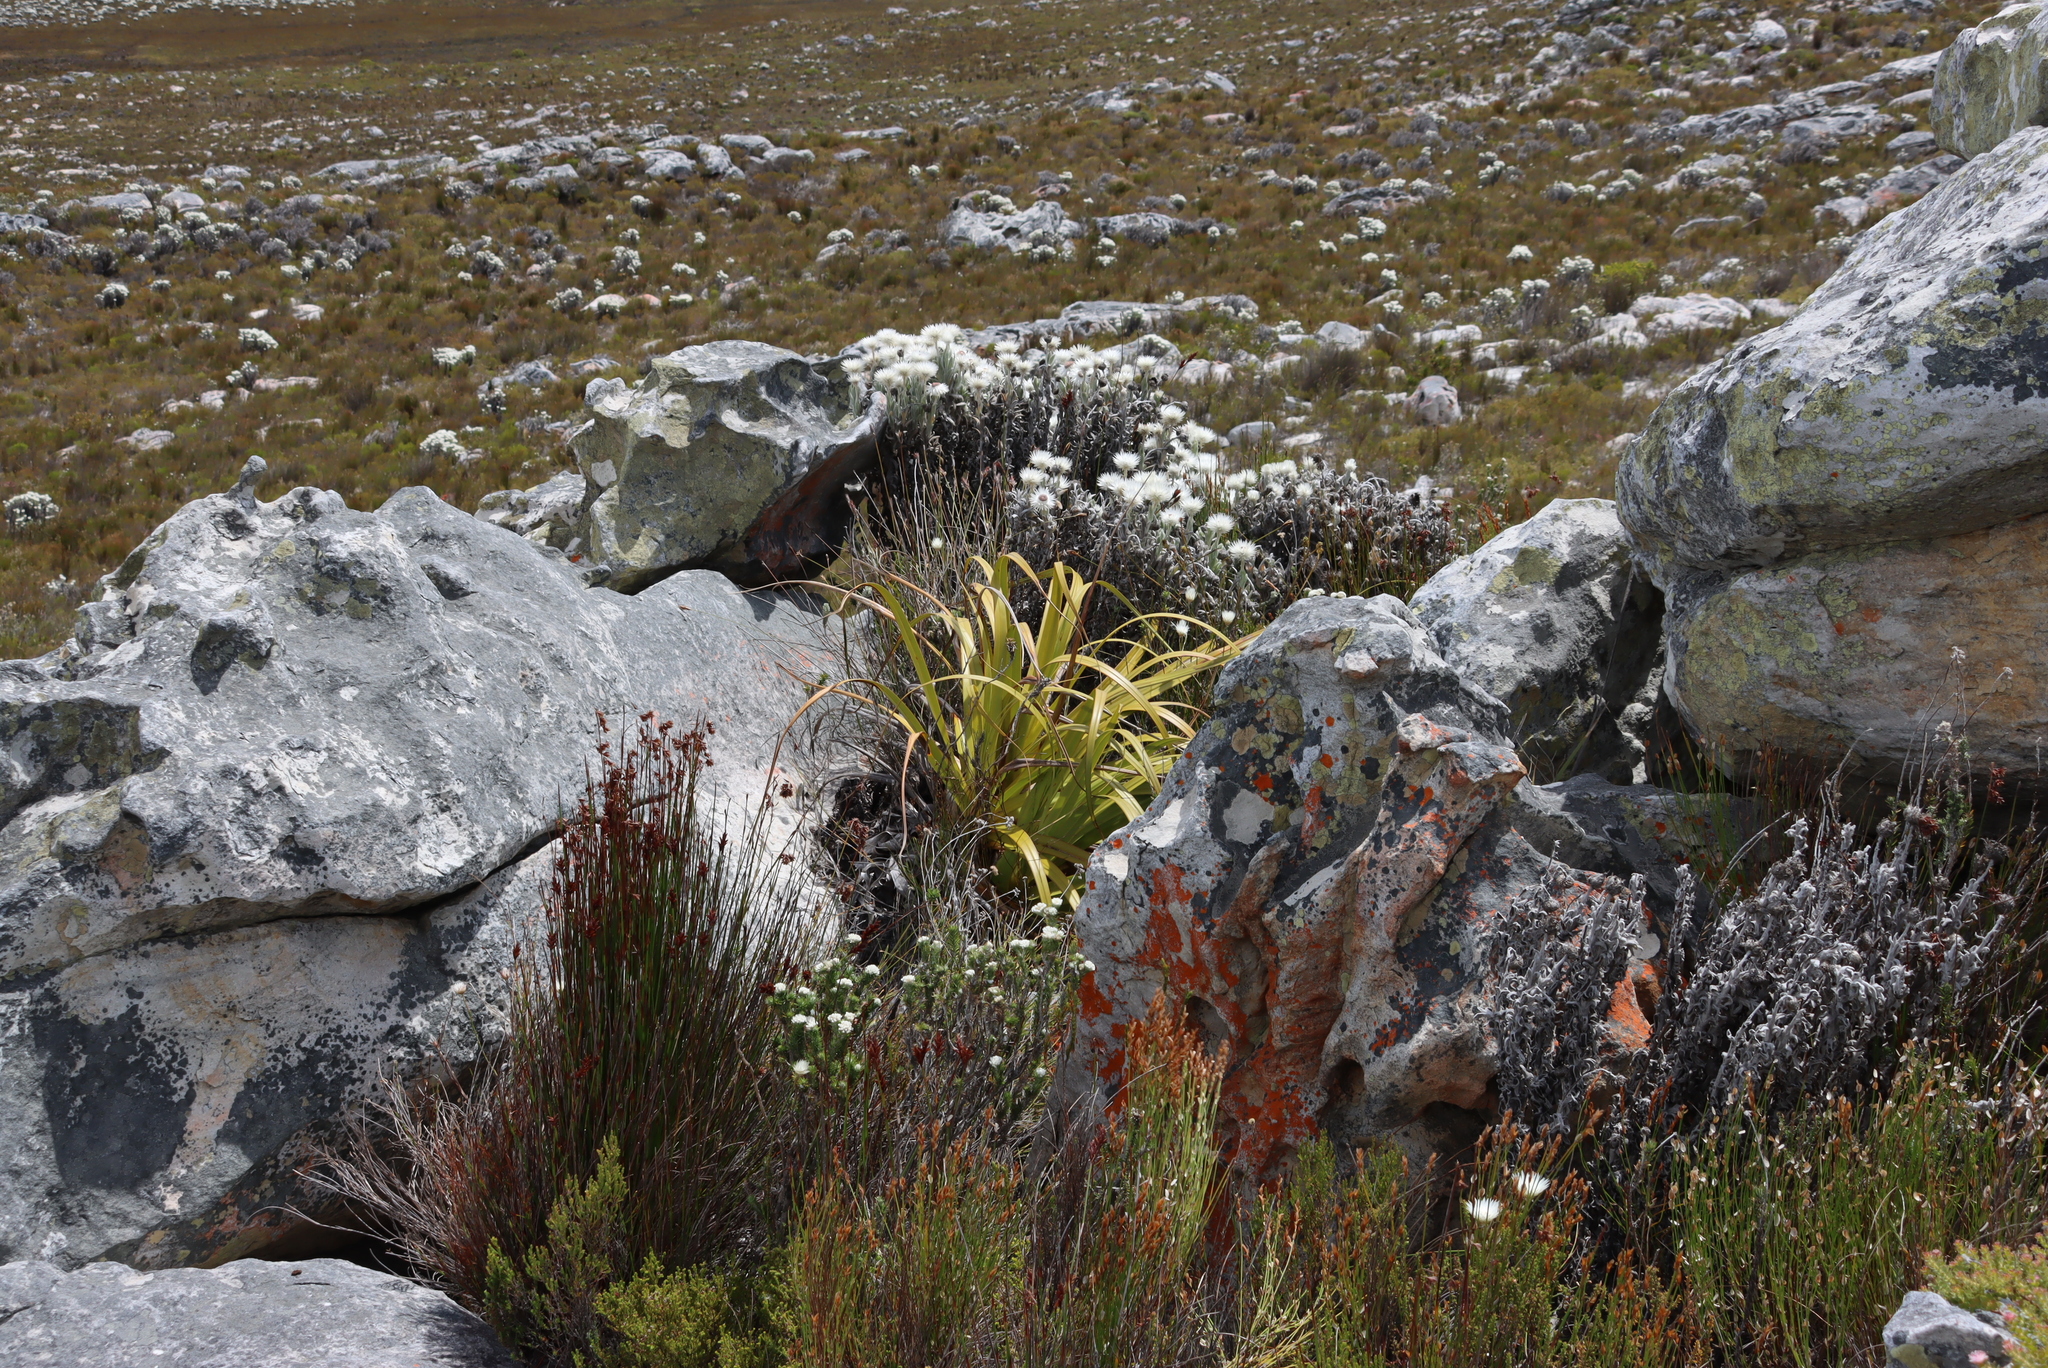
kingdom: Plantae
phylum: Tracheophyta
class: Liliopsida
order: Poales
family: Cyperaceae
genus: Tetraria
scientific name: Tetraria thermalis
